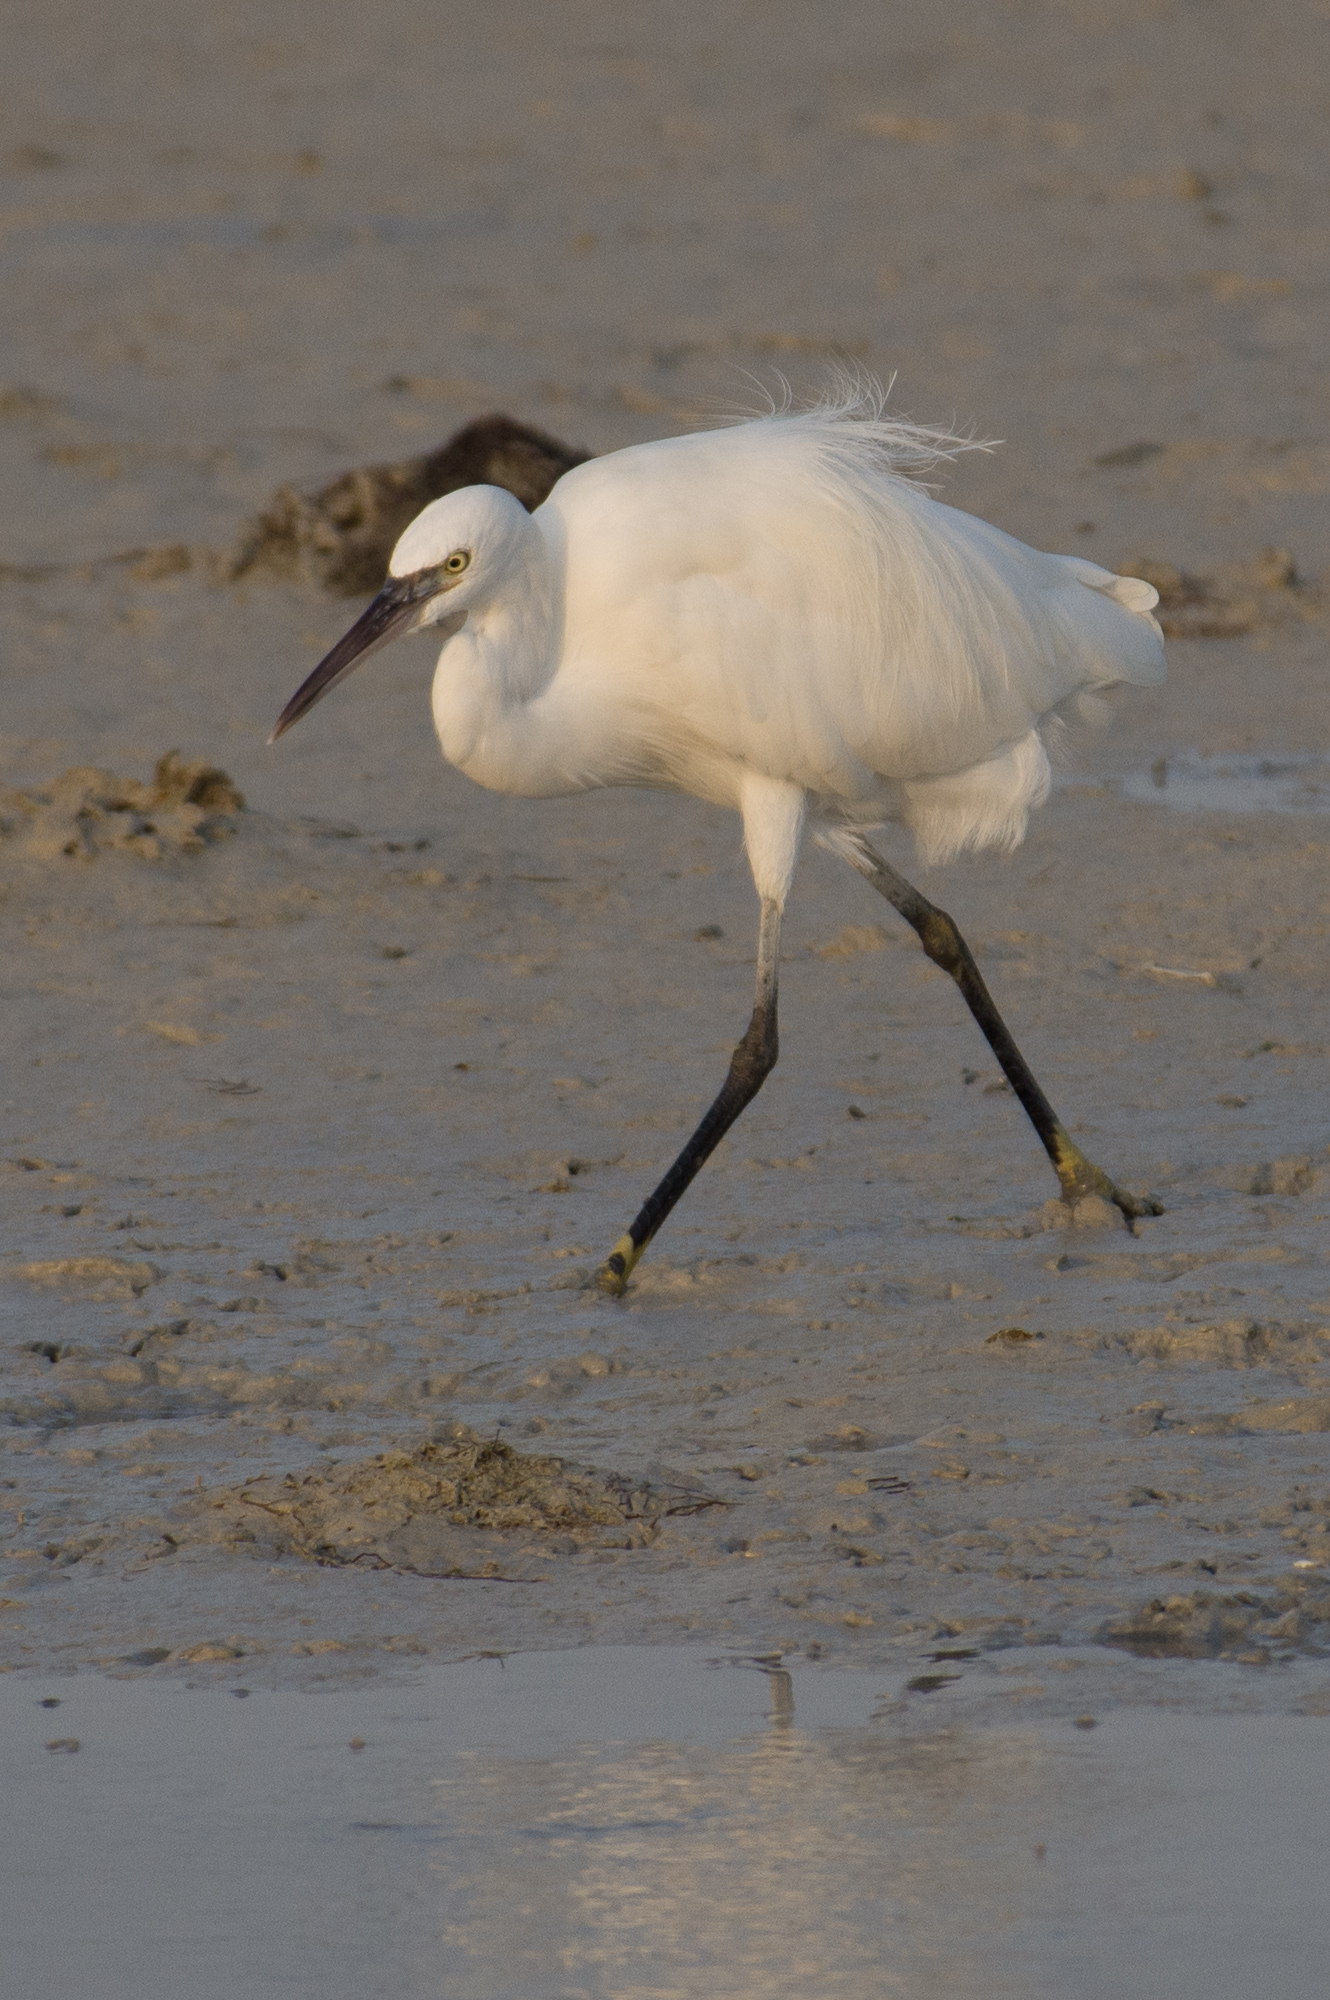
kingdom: Animalia
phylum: Chordata
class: Aves
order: Pelecaniformes
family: Ardeidae
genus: Egretta
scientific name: Egretta garzetta
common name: Little egret
